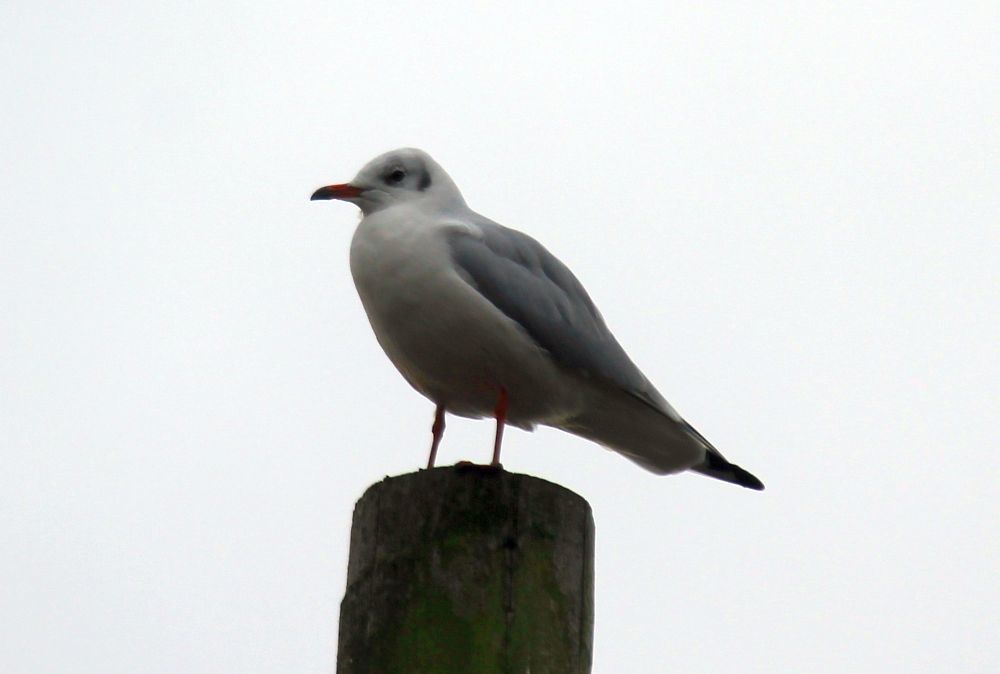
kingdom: Animalia
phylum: Chordata
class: Aves
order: Charadriiformes
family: Laridae
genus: Chroicocephalus
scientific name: Chroicocephalus ridibundus
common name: Black-headed gull
